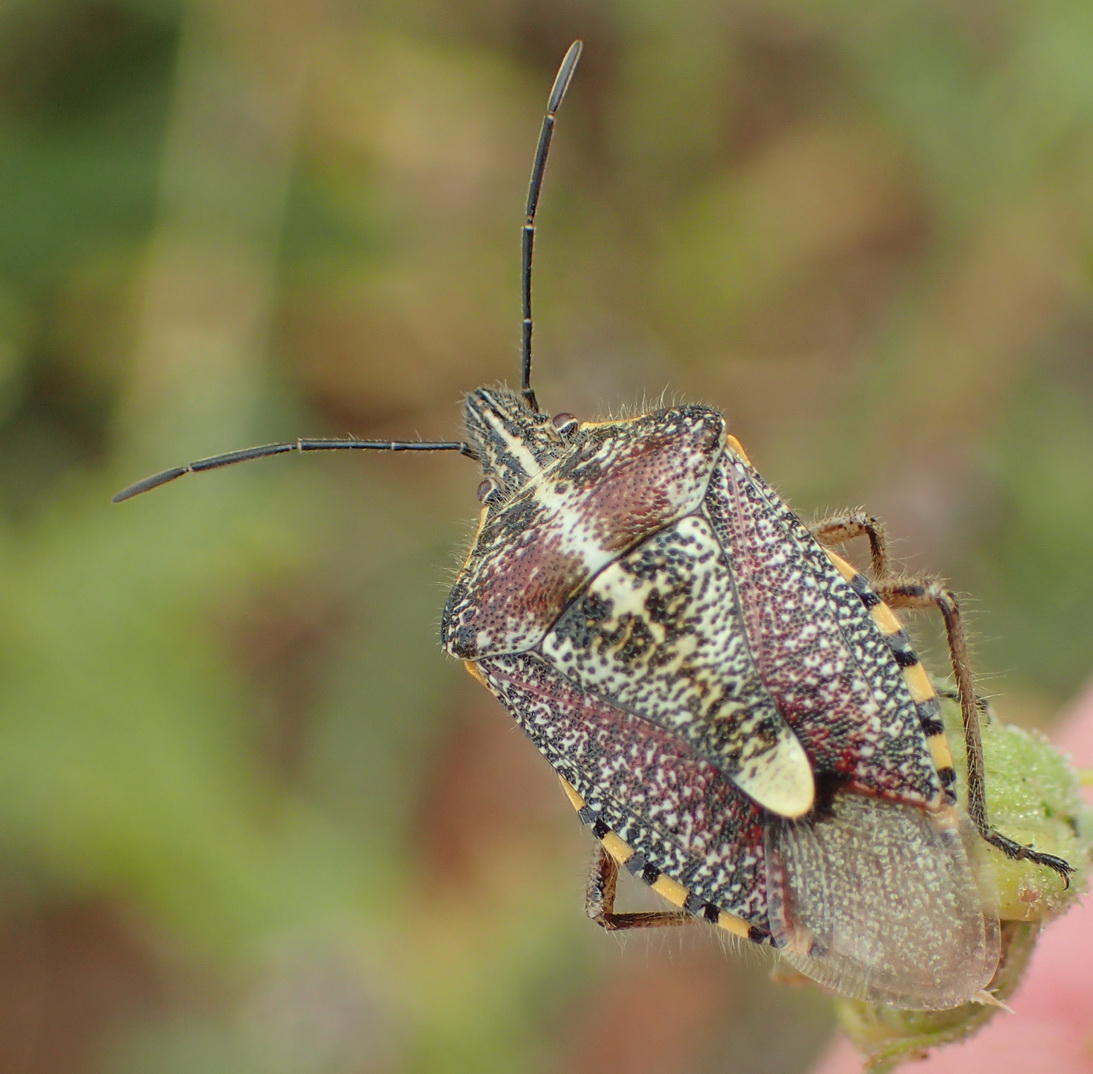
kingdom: Animalia
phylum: Arthropoda
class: Insecta
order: Hemiptera
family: Pentatomidae
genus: Agonoscelis
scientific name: Agonoscelis erosa
